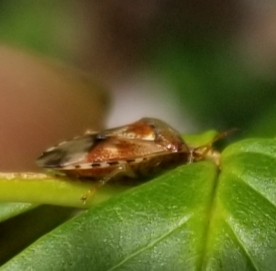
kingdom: Animalia
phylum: Arthropoda
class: Insecta
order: Hemiptera
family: Acanthosomatidae
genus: Elasmucha
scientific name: Elasmucha lateralis
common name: Shield bug
